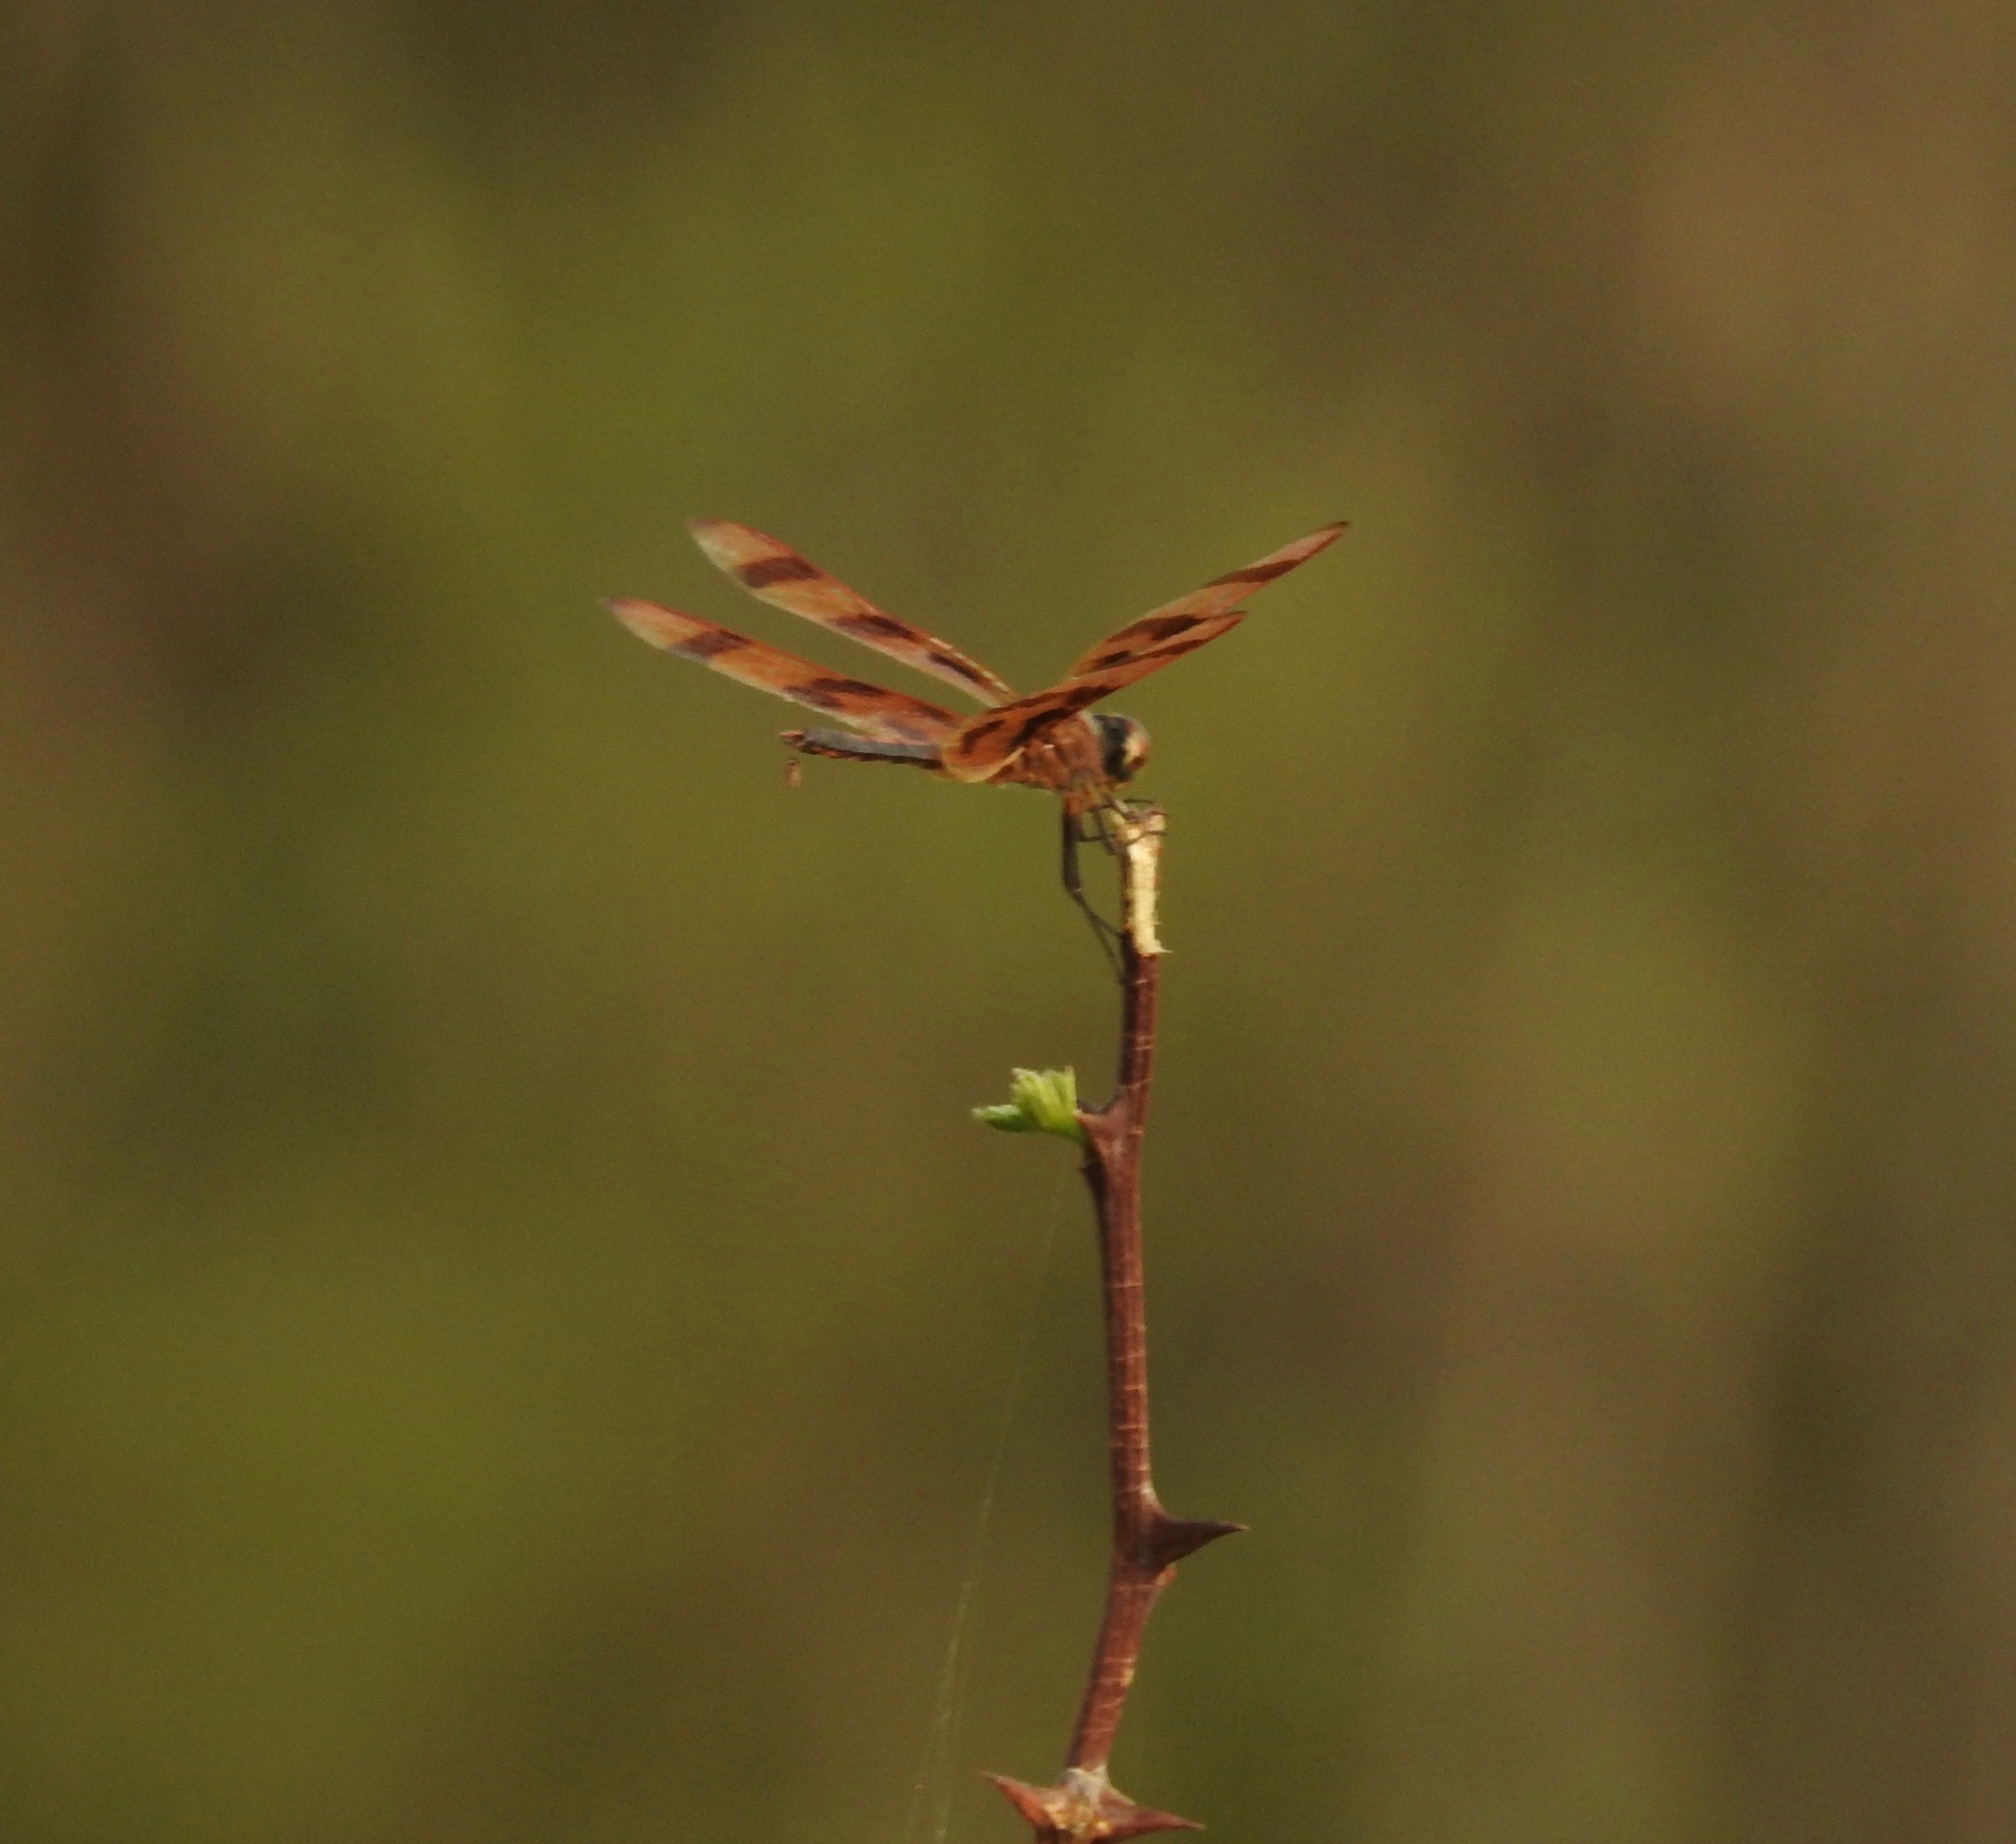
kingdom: Animalia
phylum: Arthropoda
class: Insecta
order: Odonata
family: Libellulidae
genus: Celithemis
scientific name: Celithemis eponina
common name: Halloween pennant
